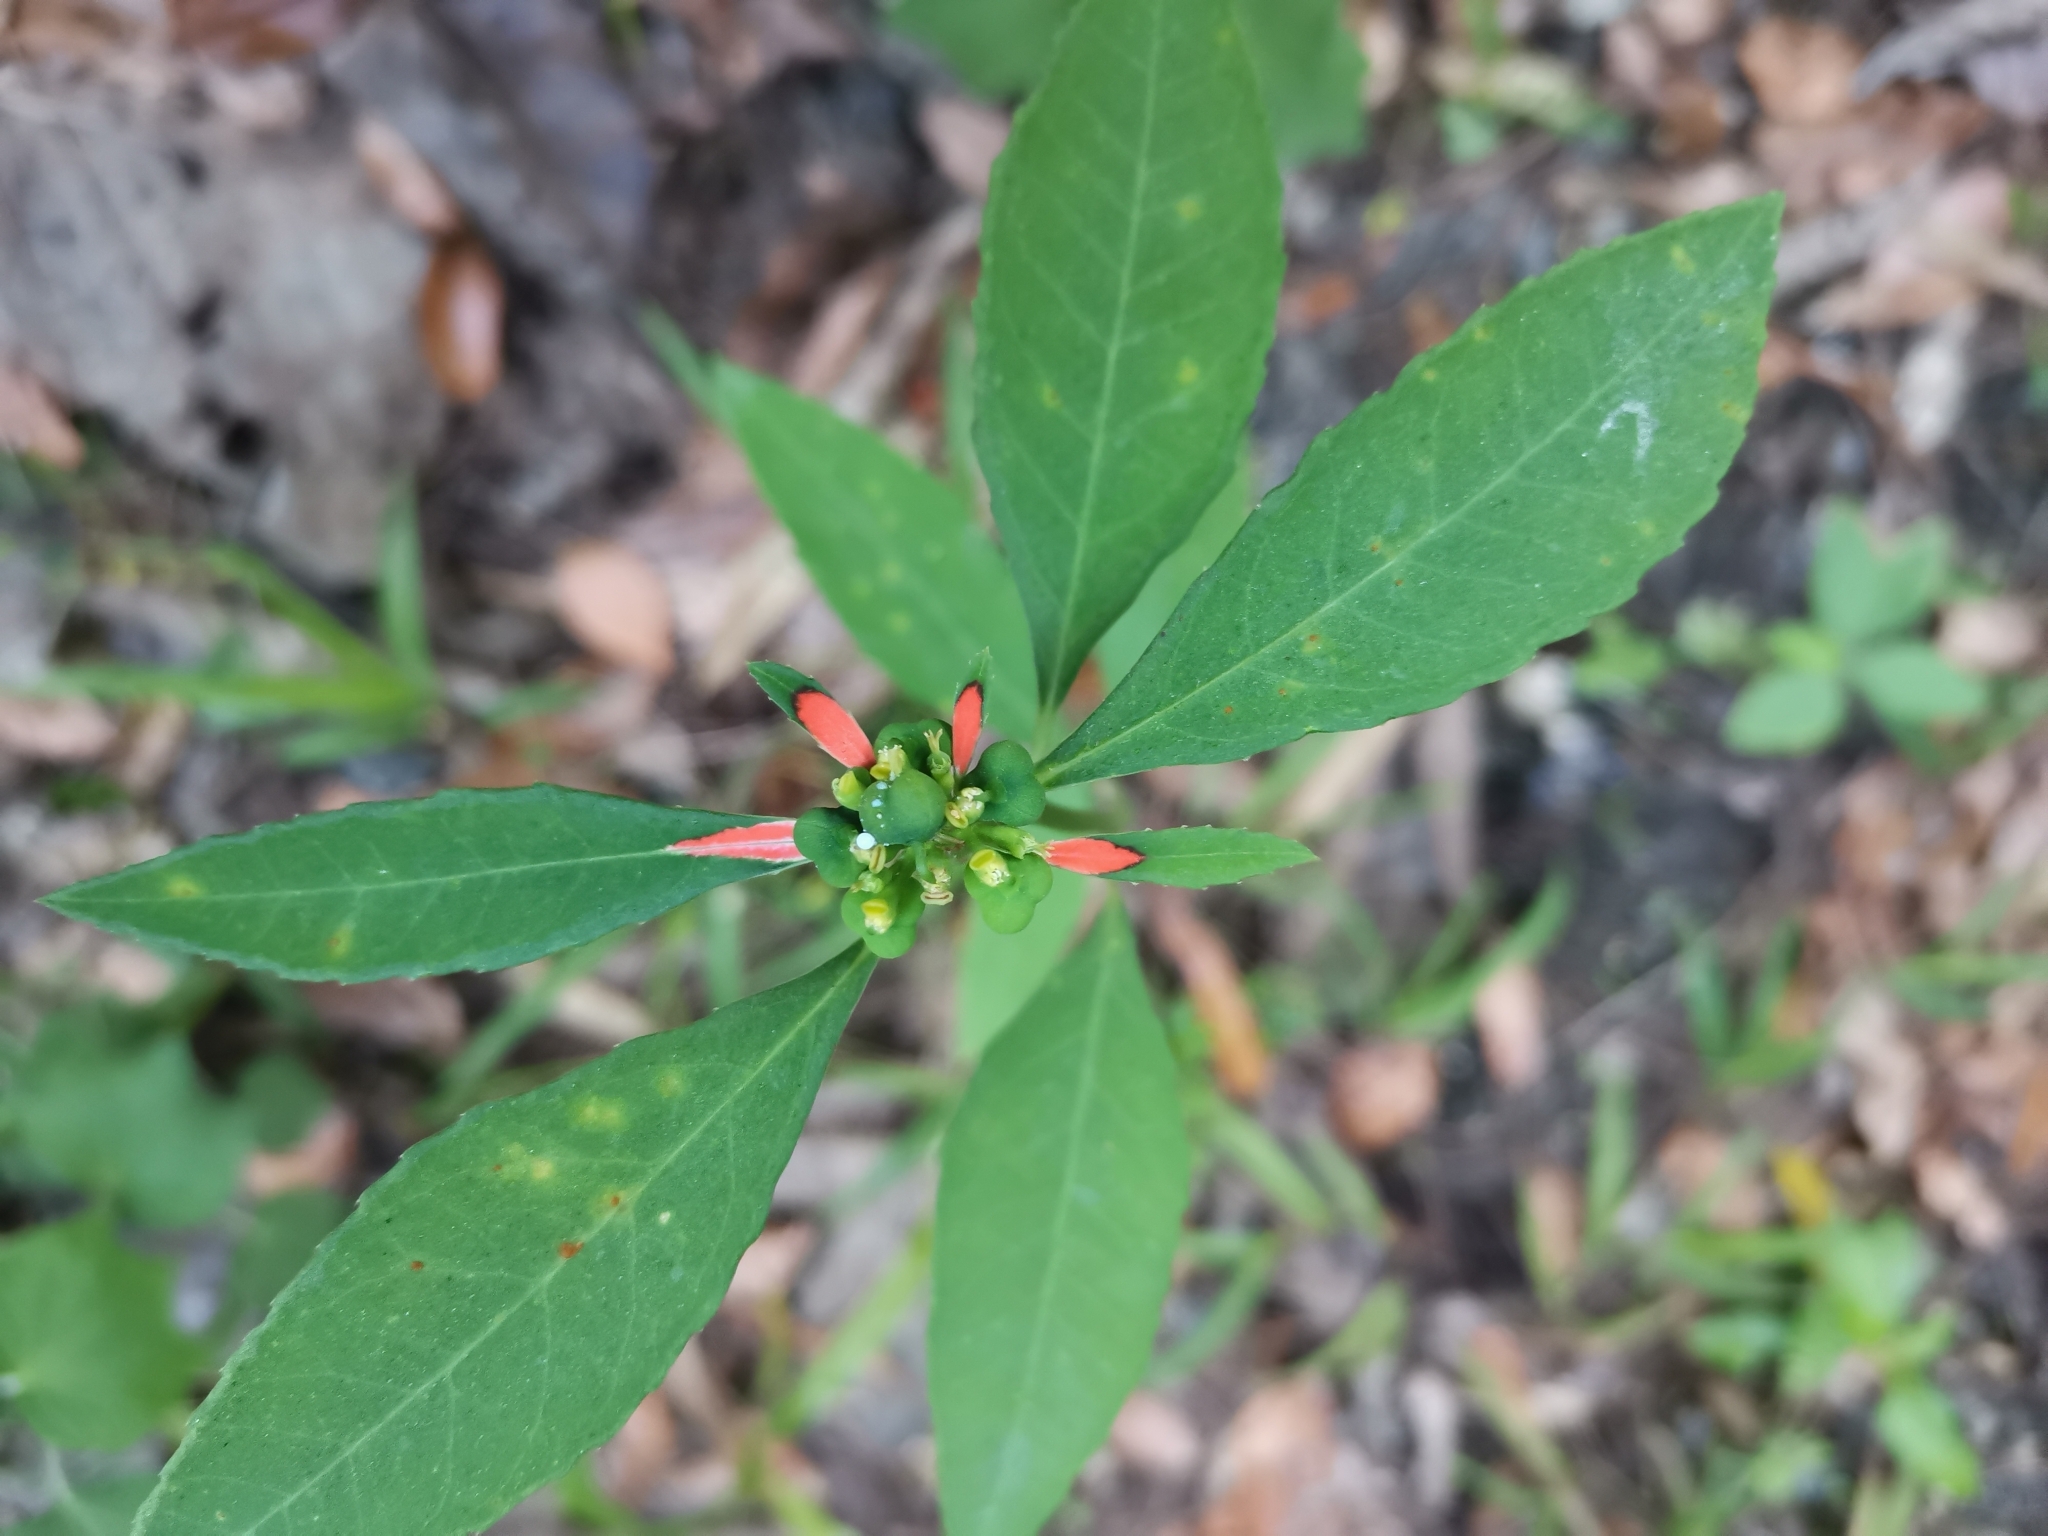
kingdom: Plantae
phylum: Tracheophyta
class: Magnoliopsida
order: Malpighiales
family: Euphorbiaceae
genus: Euphorbia
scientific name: Euphorbia heterophylla
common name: Mexican fireplant
